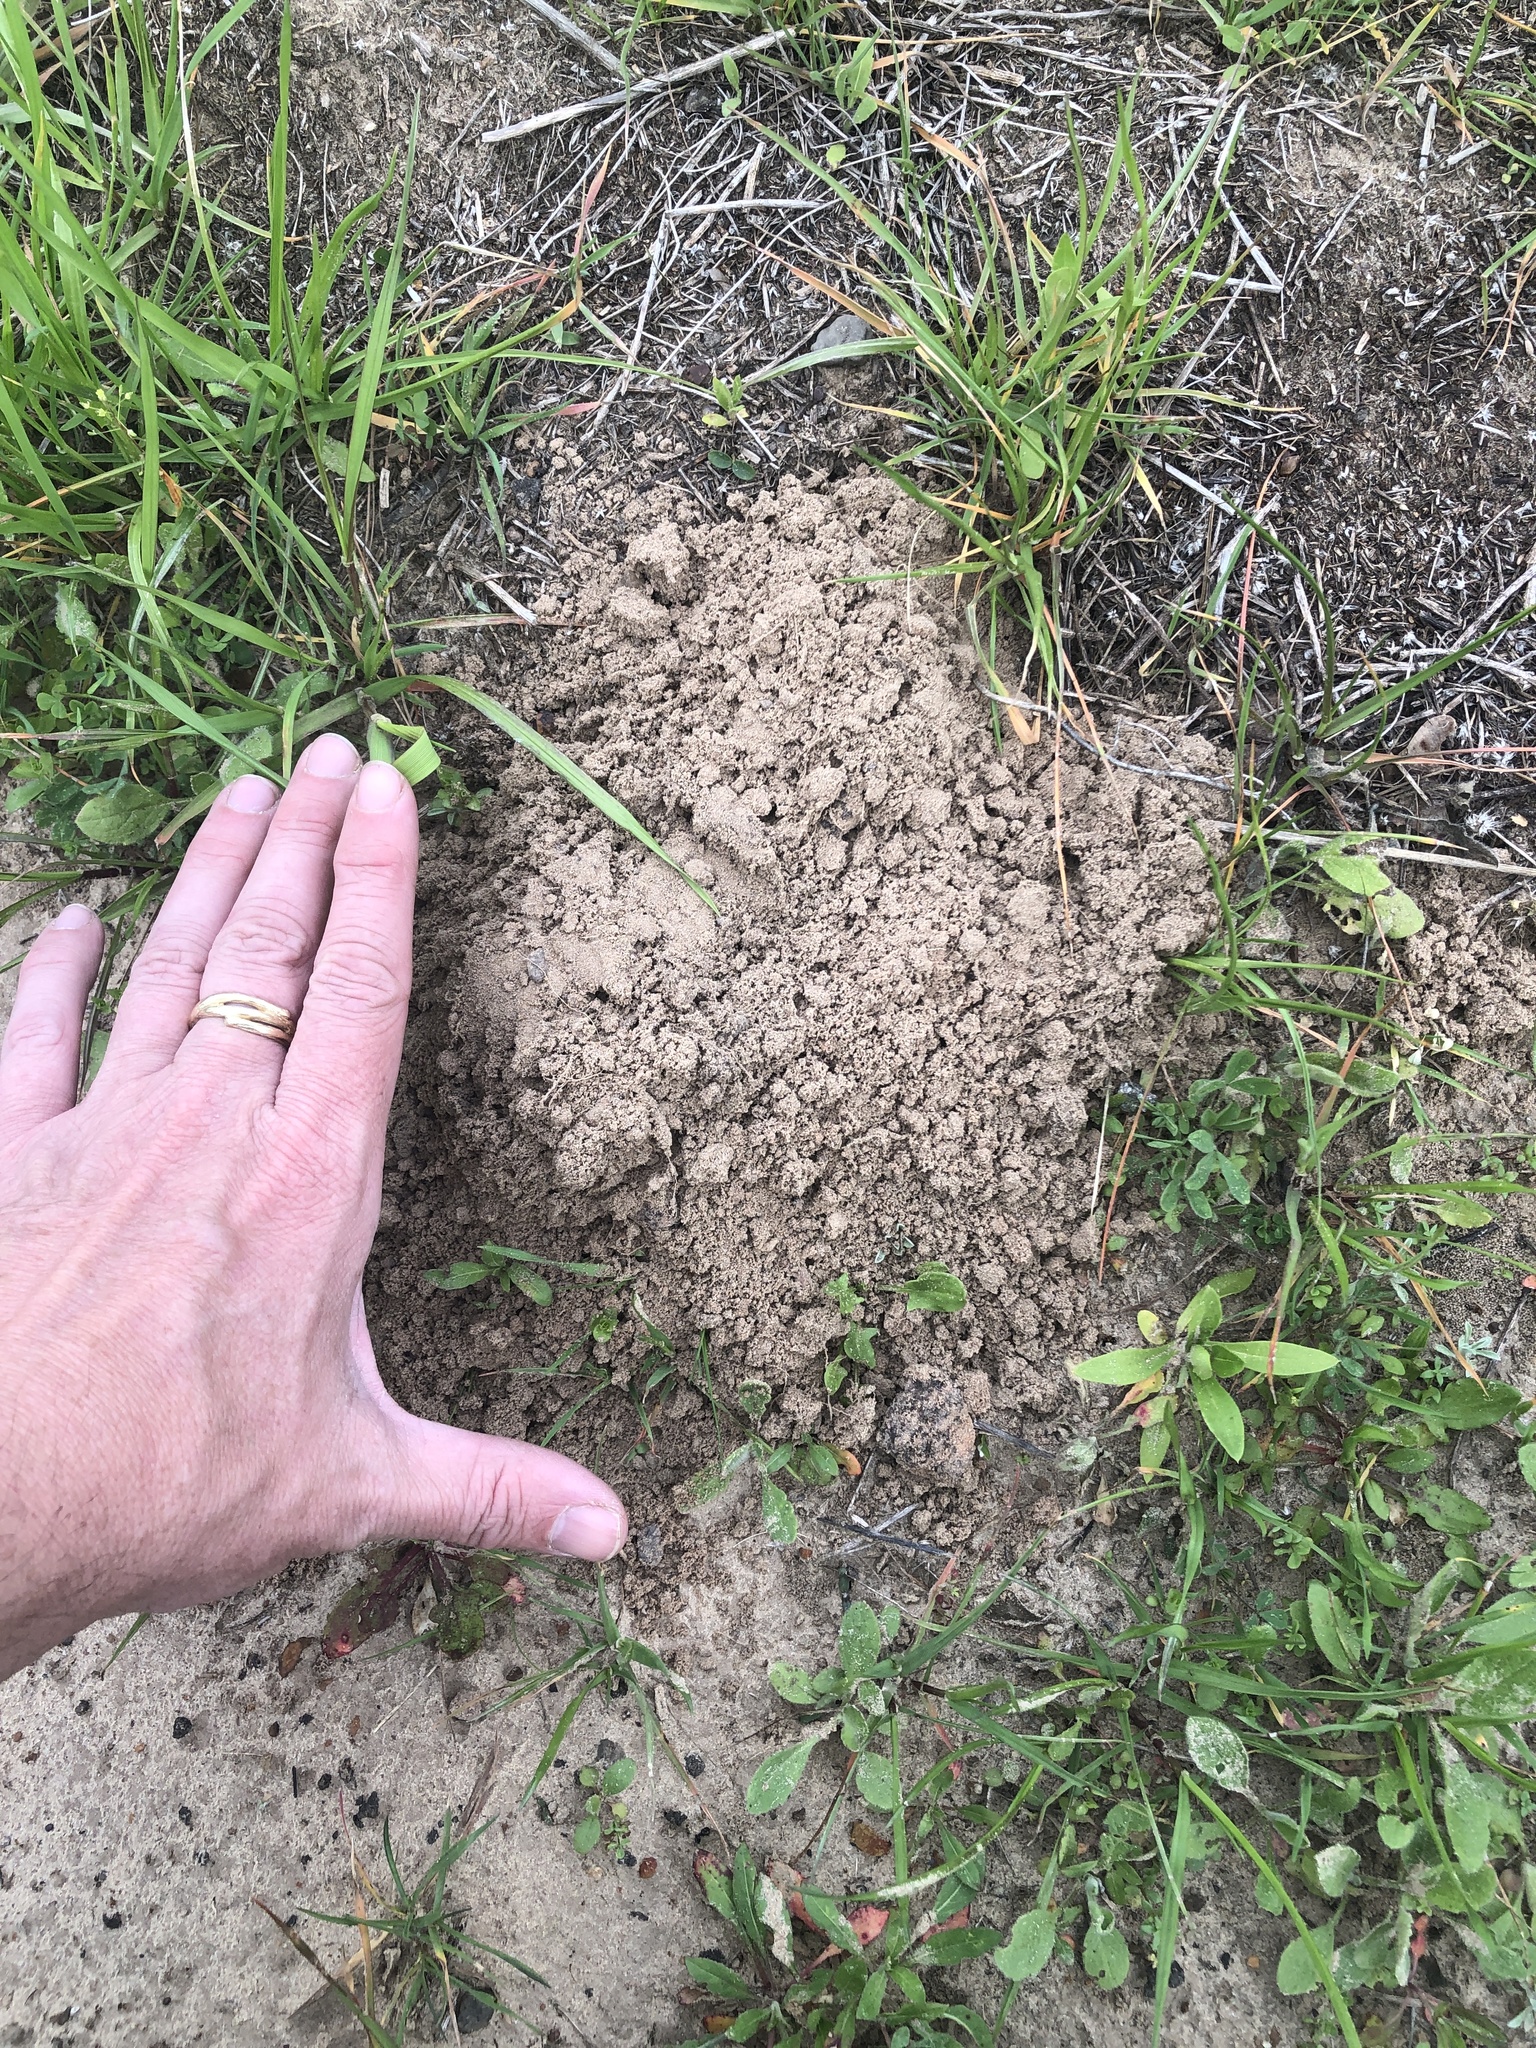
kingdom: Animalia
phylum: Chordata
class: Mammalia
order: Rodentia
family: Geomyidae
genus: Geomys
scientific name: Geomys breviceps
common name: Baird's pocket gopher
